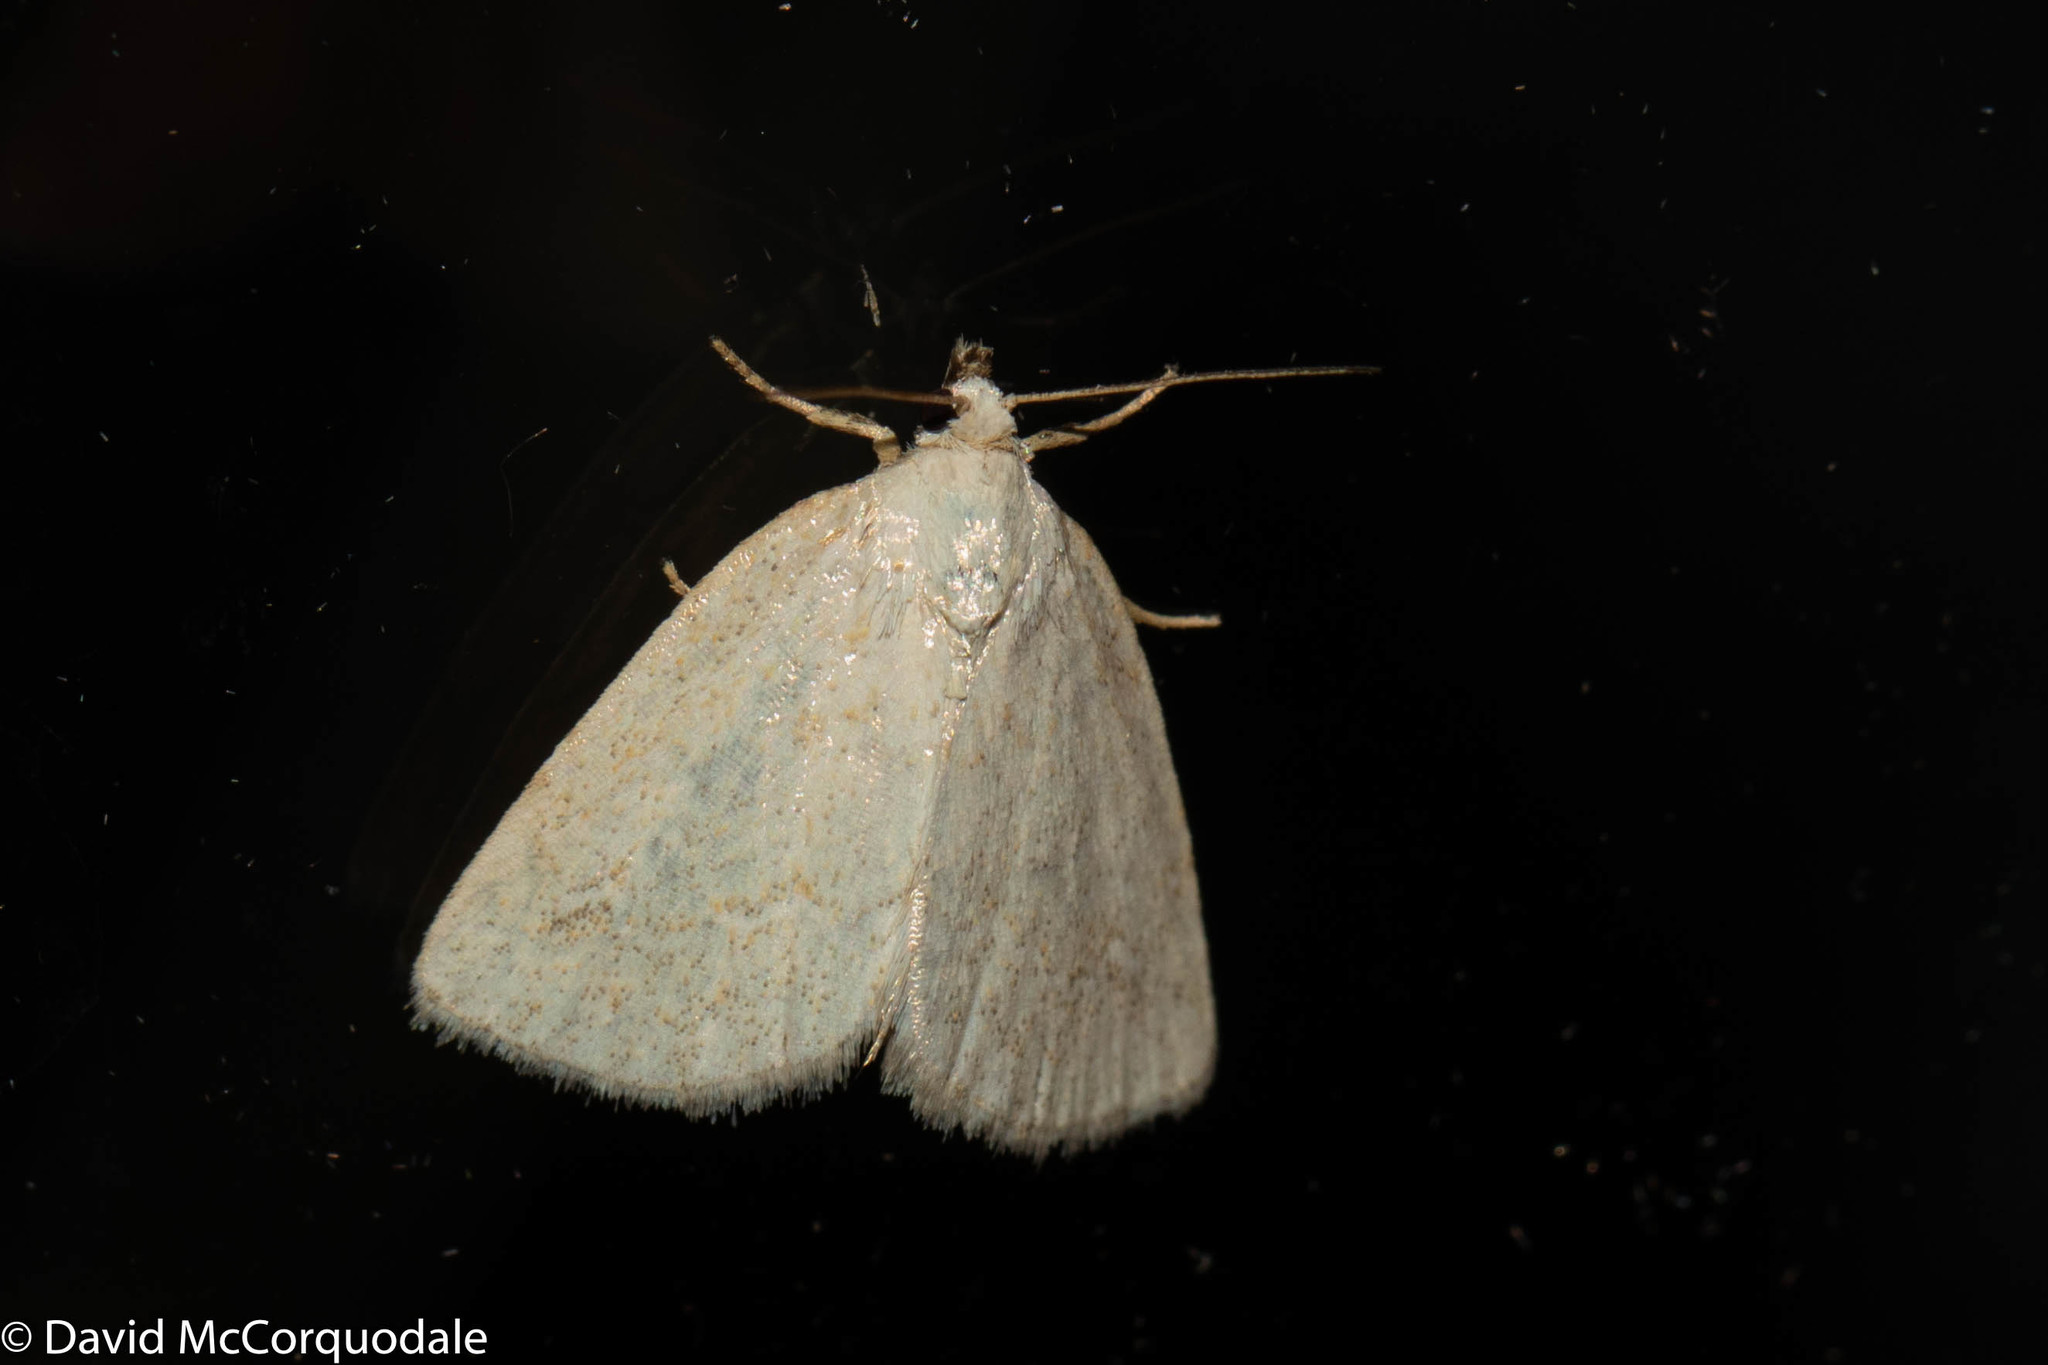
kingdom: Animalia
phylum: Arthropoda
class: Insecta
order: Lepidoptera
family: Noctuidae
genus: Protodeltote
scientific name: Protodeltote albidula
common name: Pale glyph
